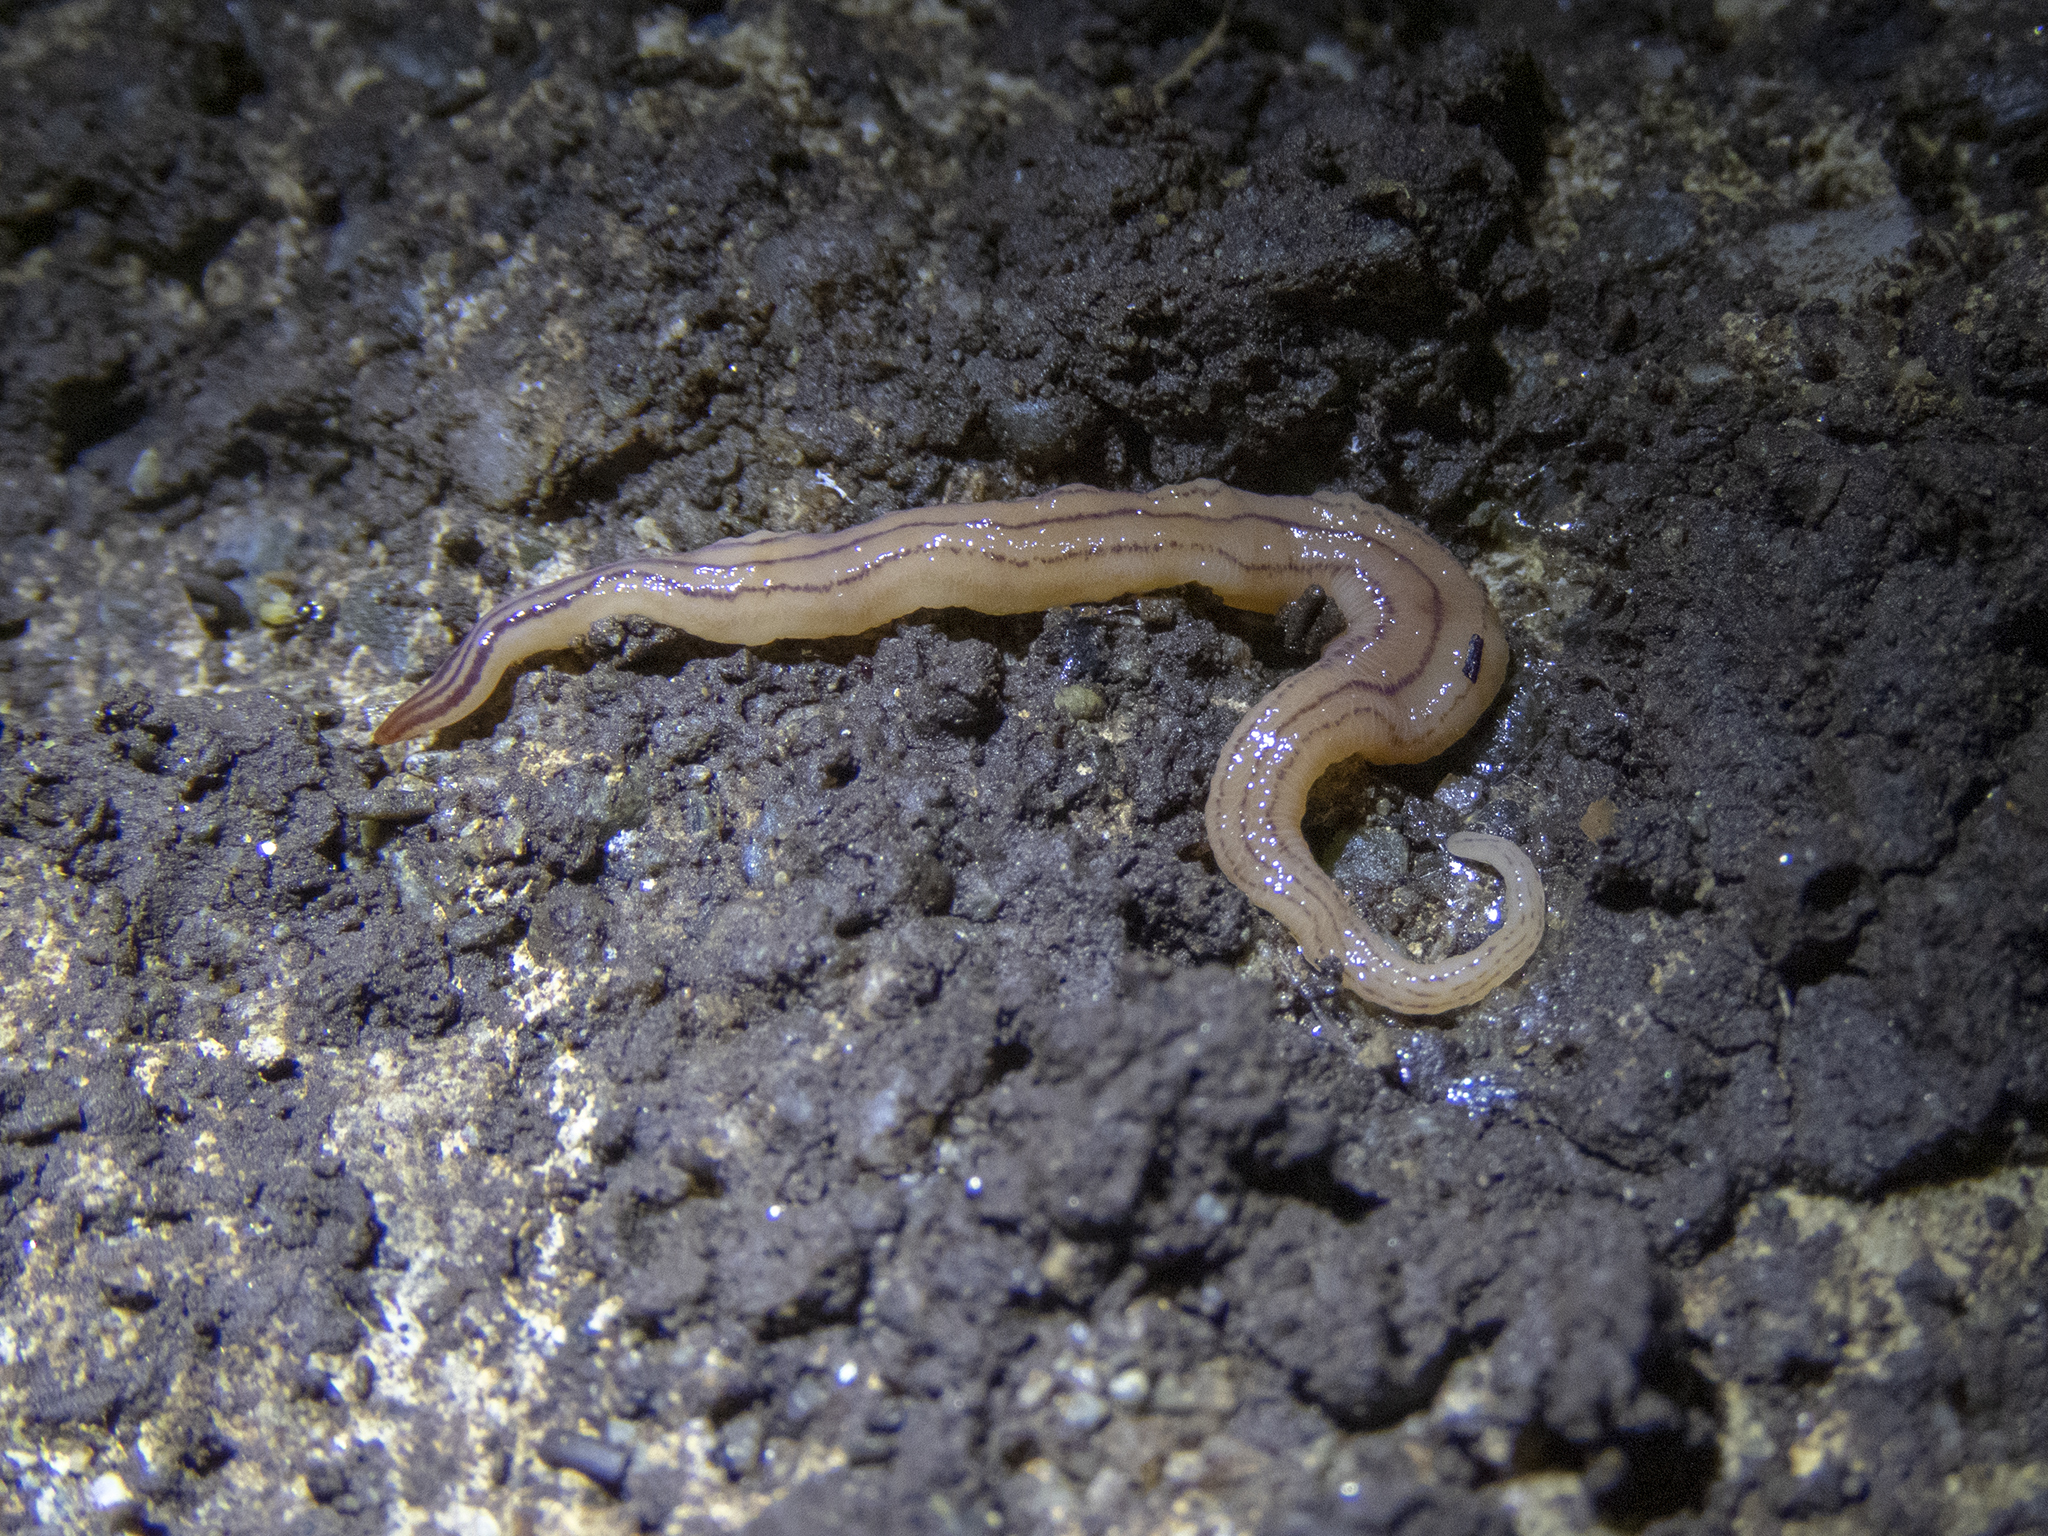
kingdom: Animalia
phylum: Platyhelminthes
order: Tricladida
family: Geoplanidae
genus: Artioposthia
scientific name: Artioposthia
